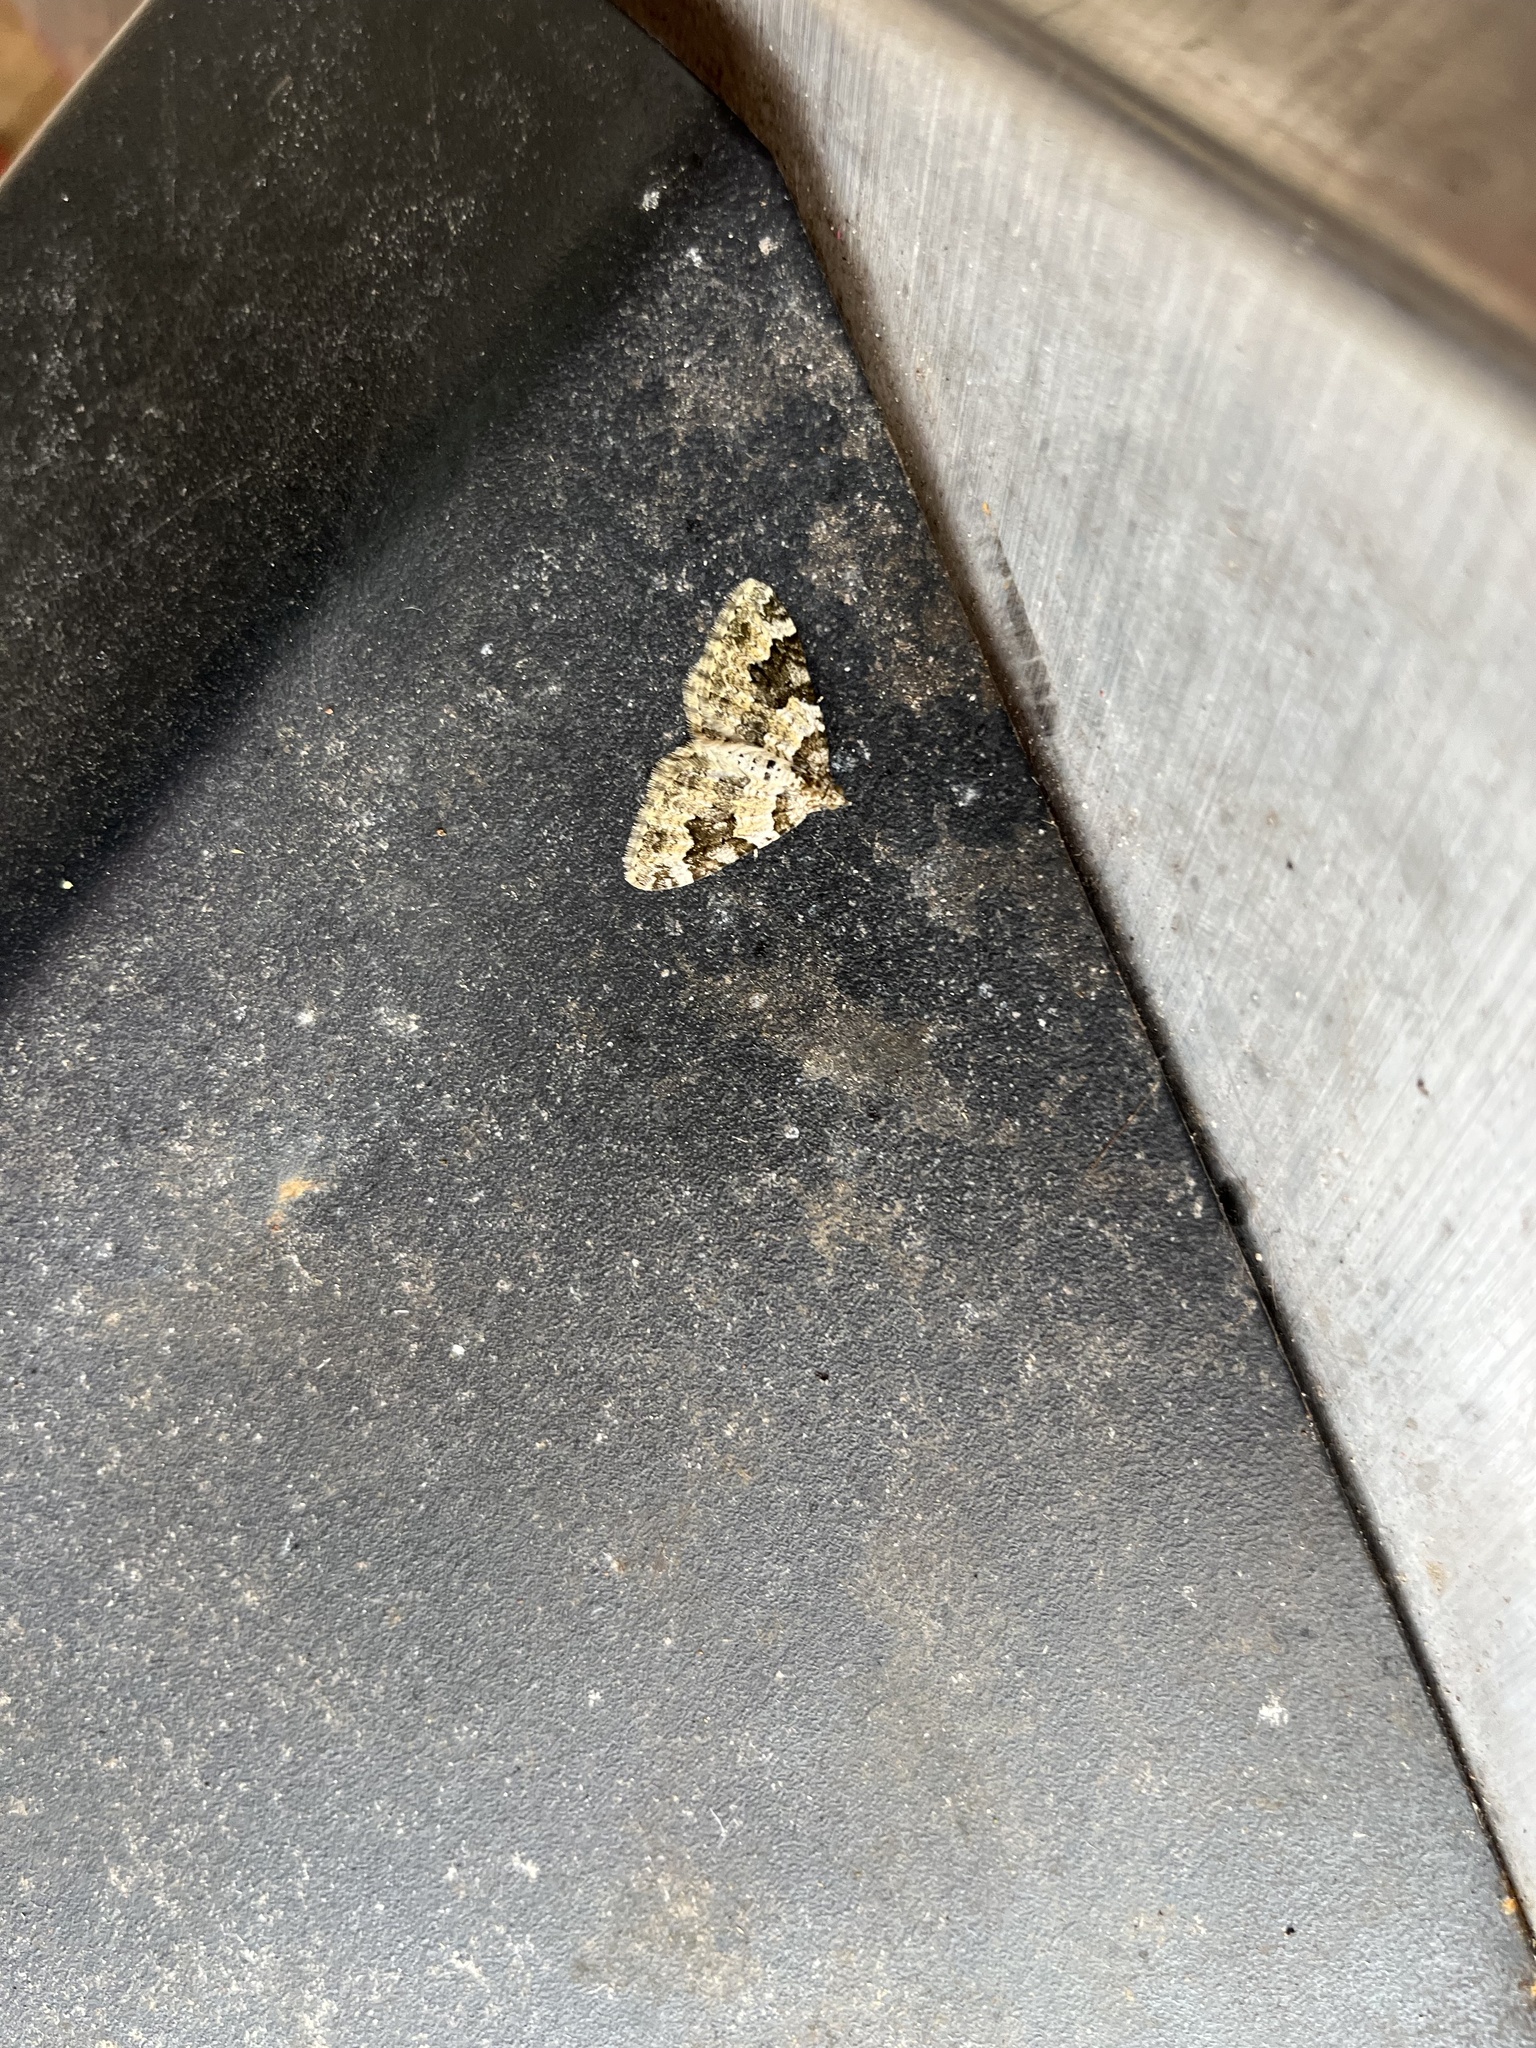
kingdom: Animalia
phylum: Arthropoda
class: Insecta
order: Lepidoptera
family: Geometridae
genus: Xanthorhoe
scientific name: Xanthorhoe fluctuata
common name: Garden carpet
